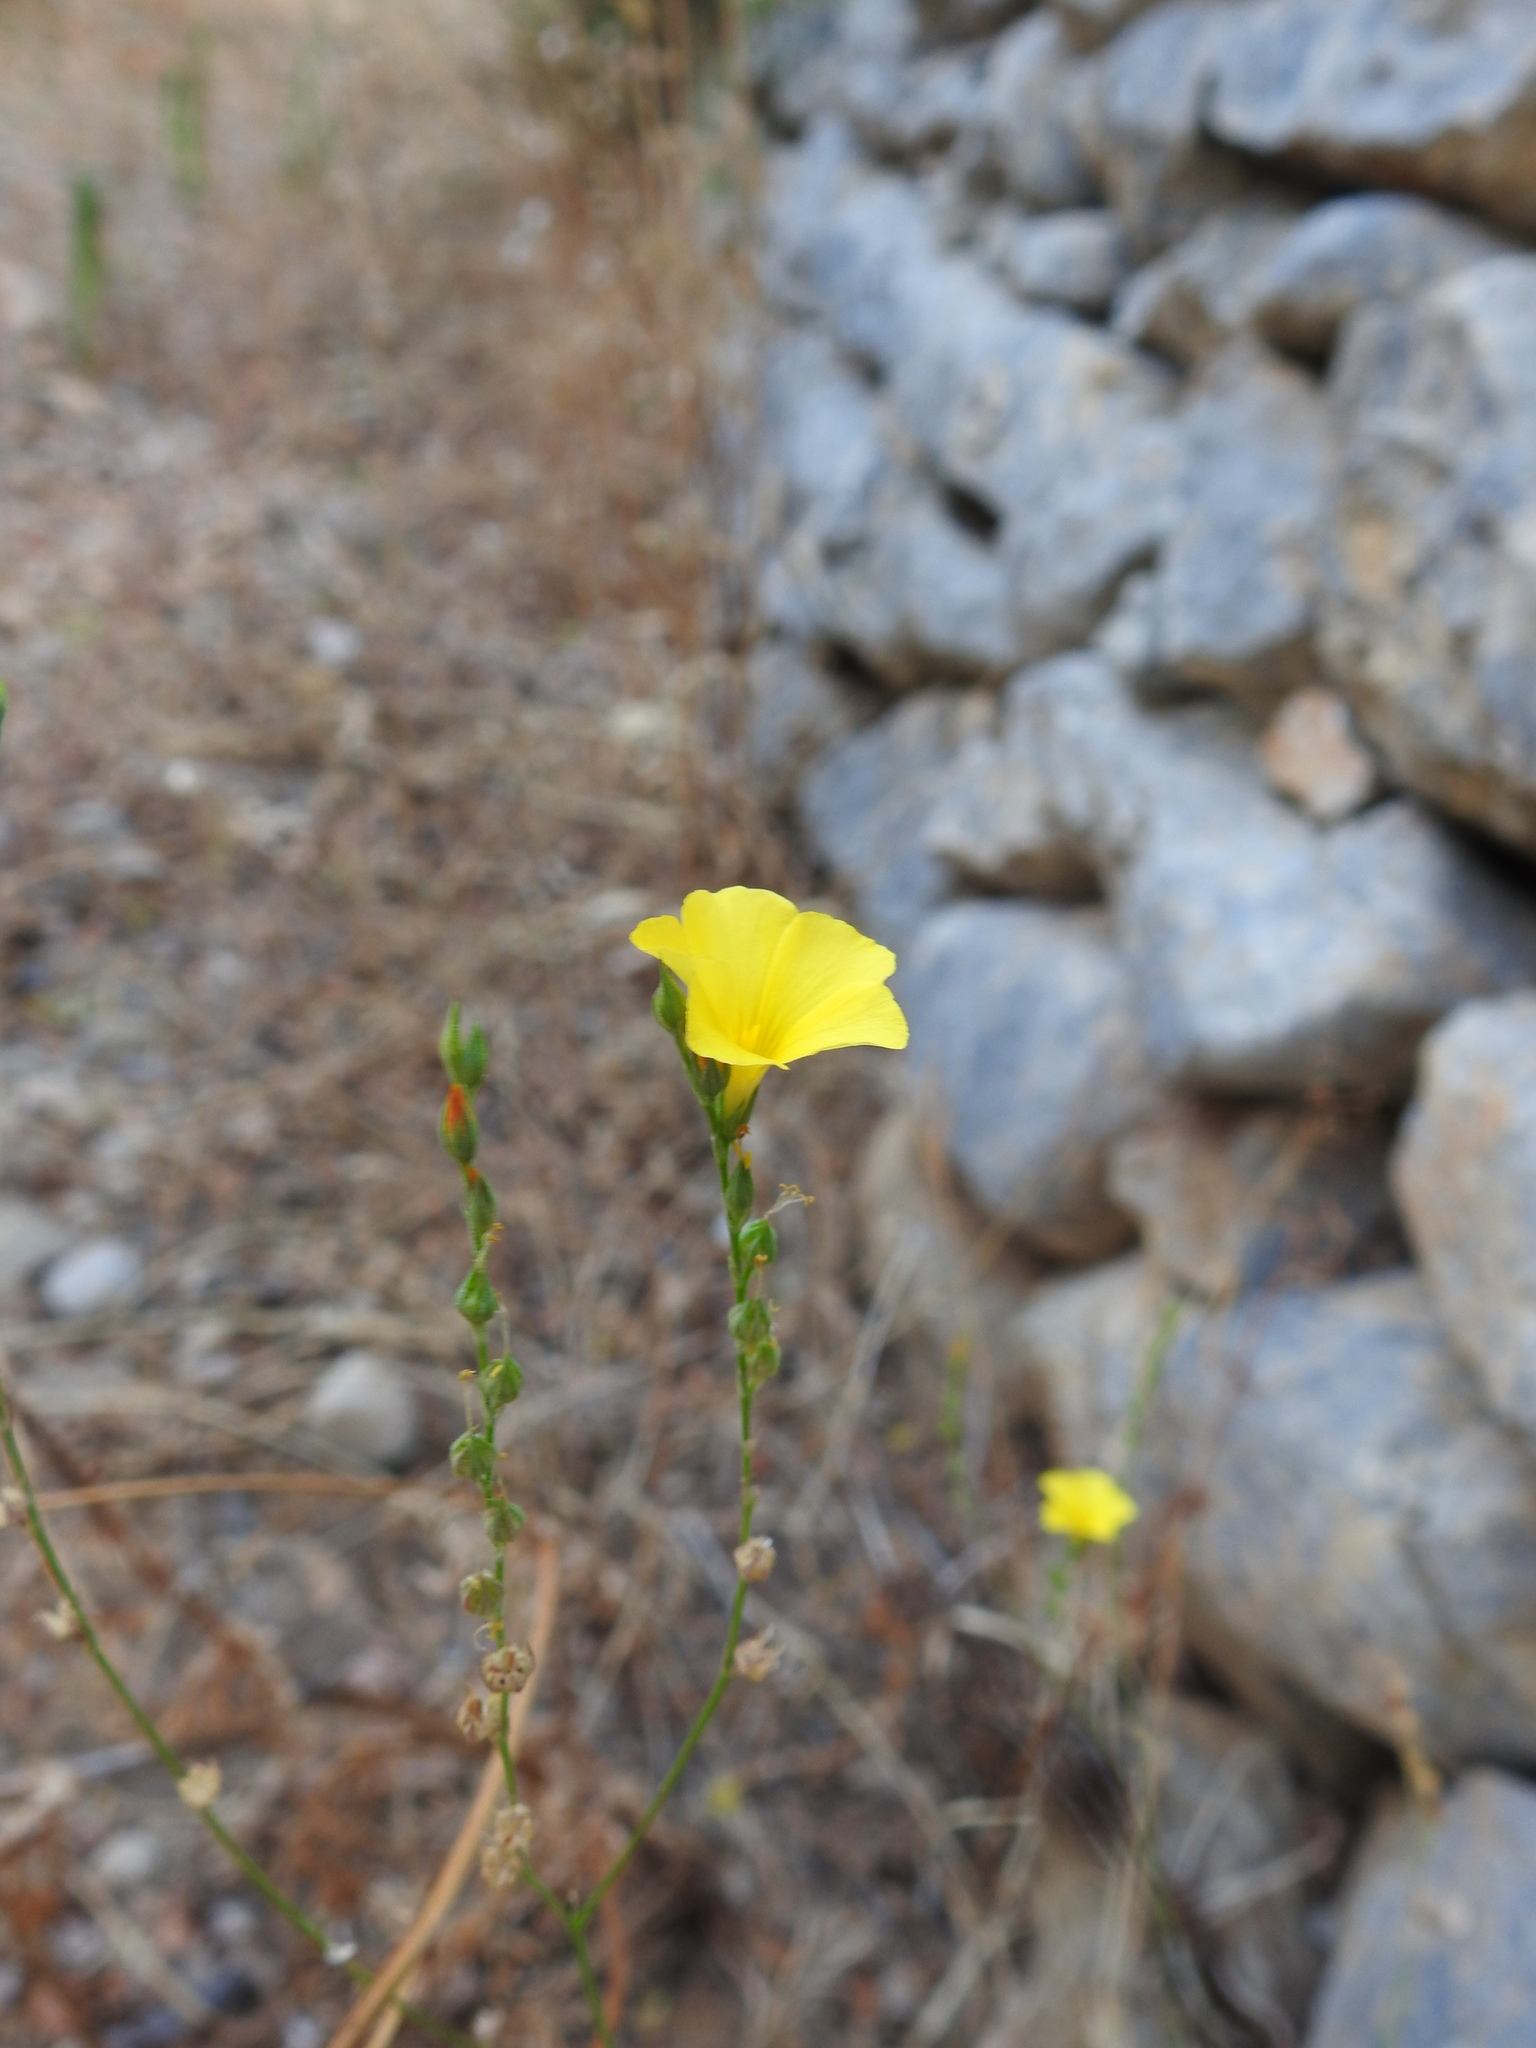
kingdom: Plantae
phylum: Tracheophyta
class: Magnoliopsida
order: Malpighiales
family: Linaceae
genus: Linum
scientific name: Linum tenue
